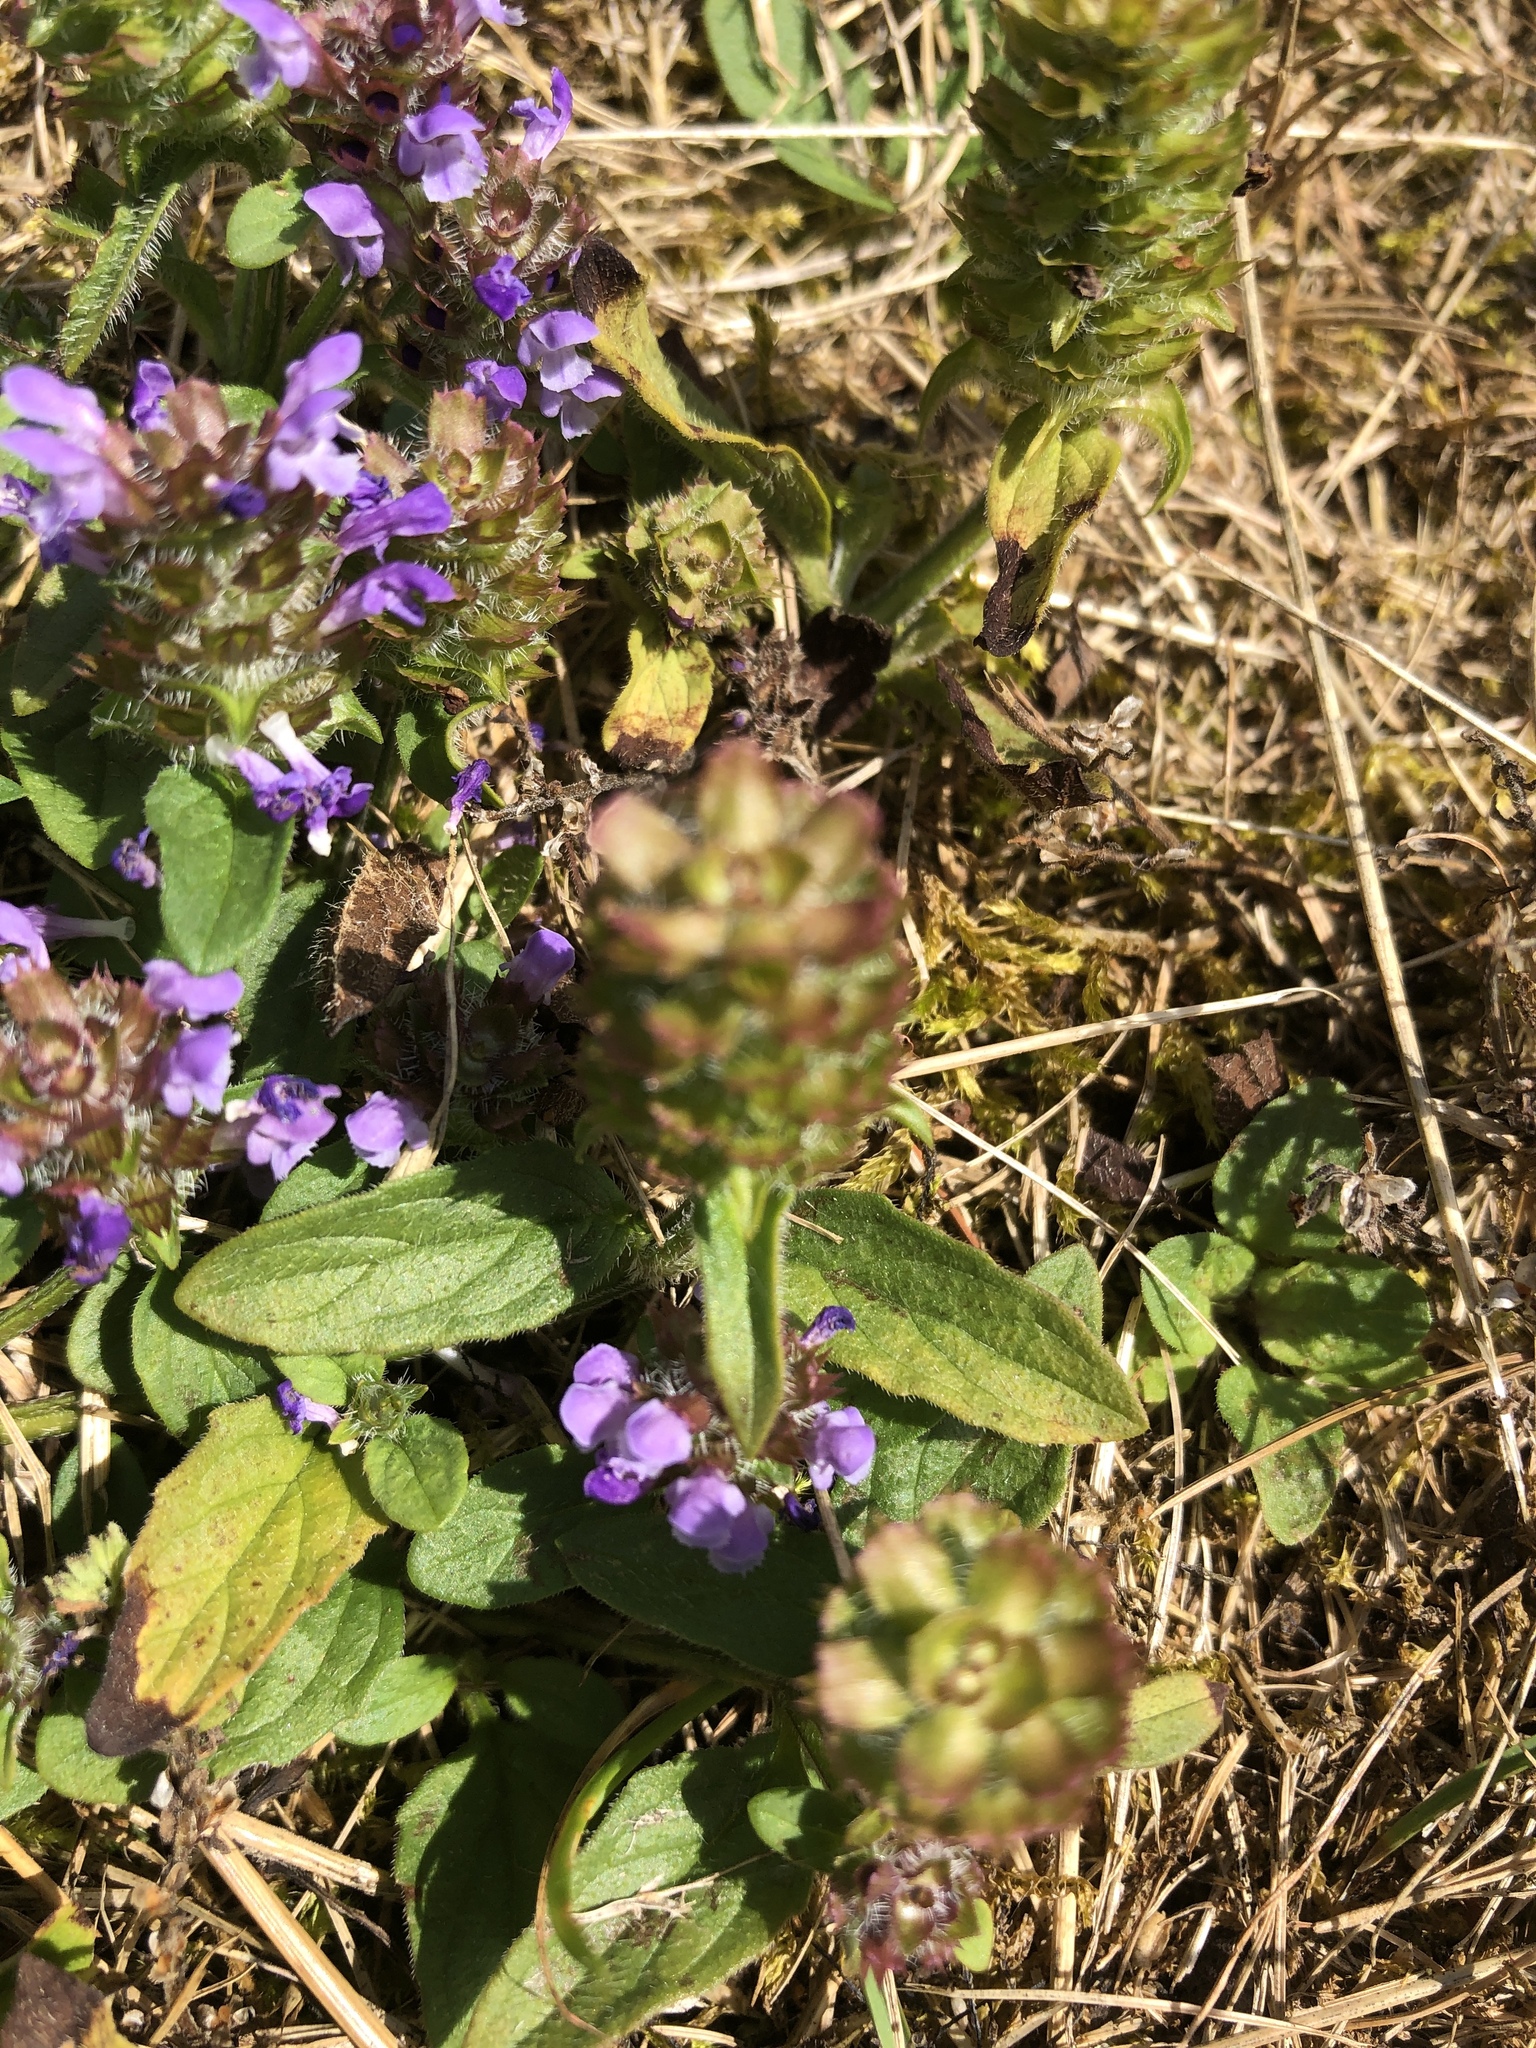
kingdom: Plantae
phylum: Tracheophyta
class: Magnoliopsida
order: Lamiales
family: Lamiaceae
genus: Prunella
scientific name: Prunella vulgaris
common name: Heal-all
